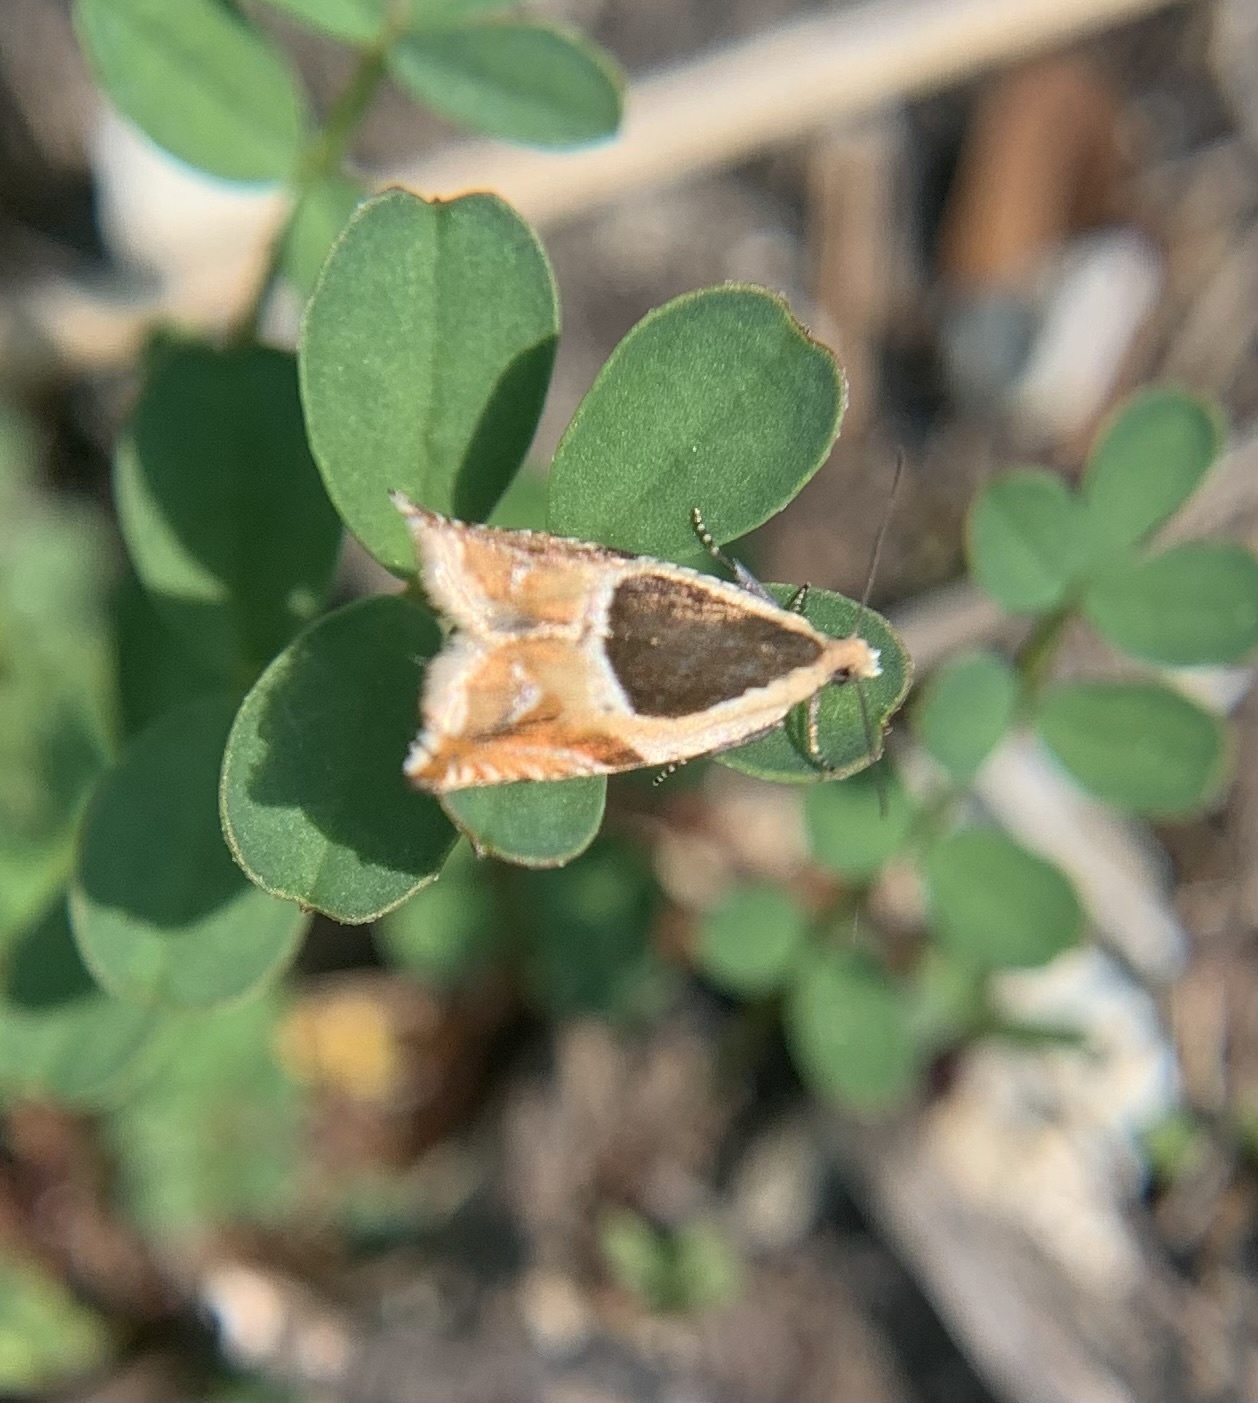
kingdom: Animalia
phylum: Arthropoda
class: Insecta
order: Lepidoptera
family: Tortricidae
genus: Ancylis
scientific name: Ancylis badiana
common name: Common roller
